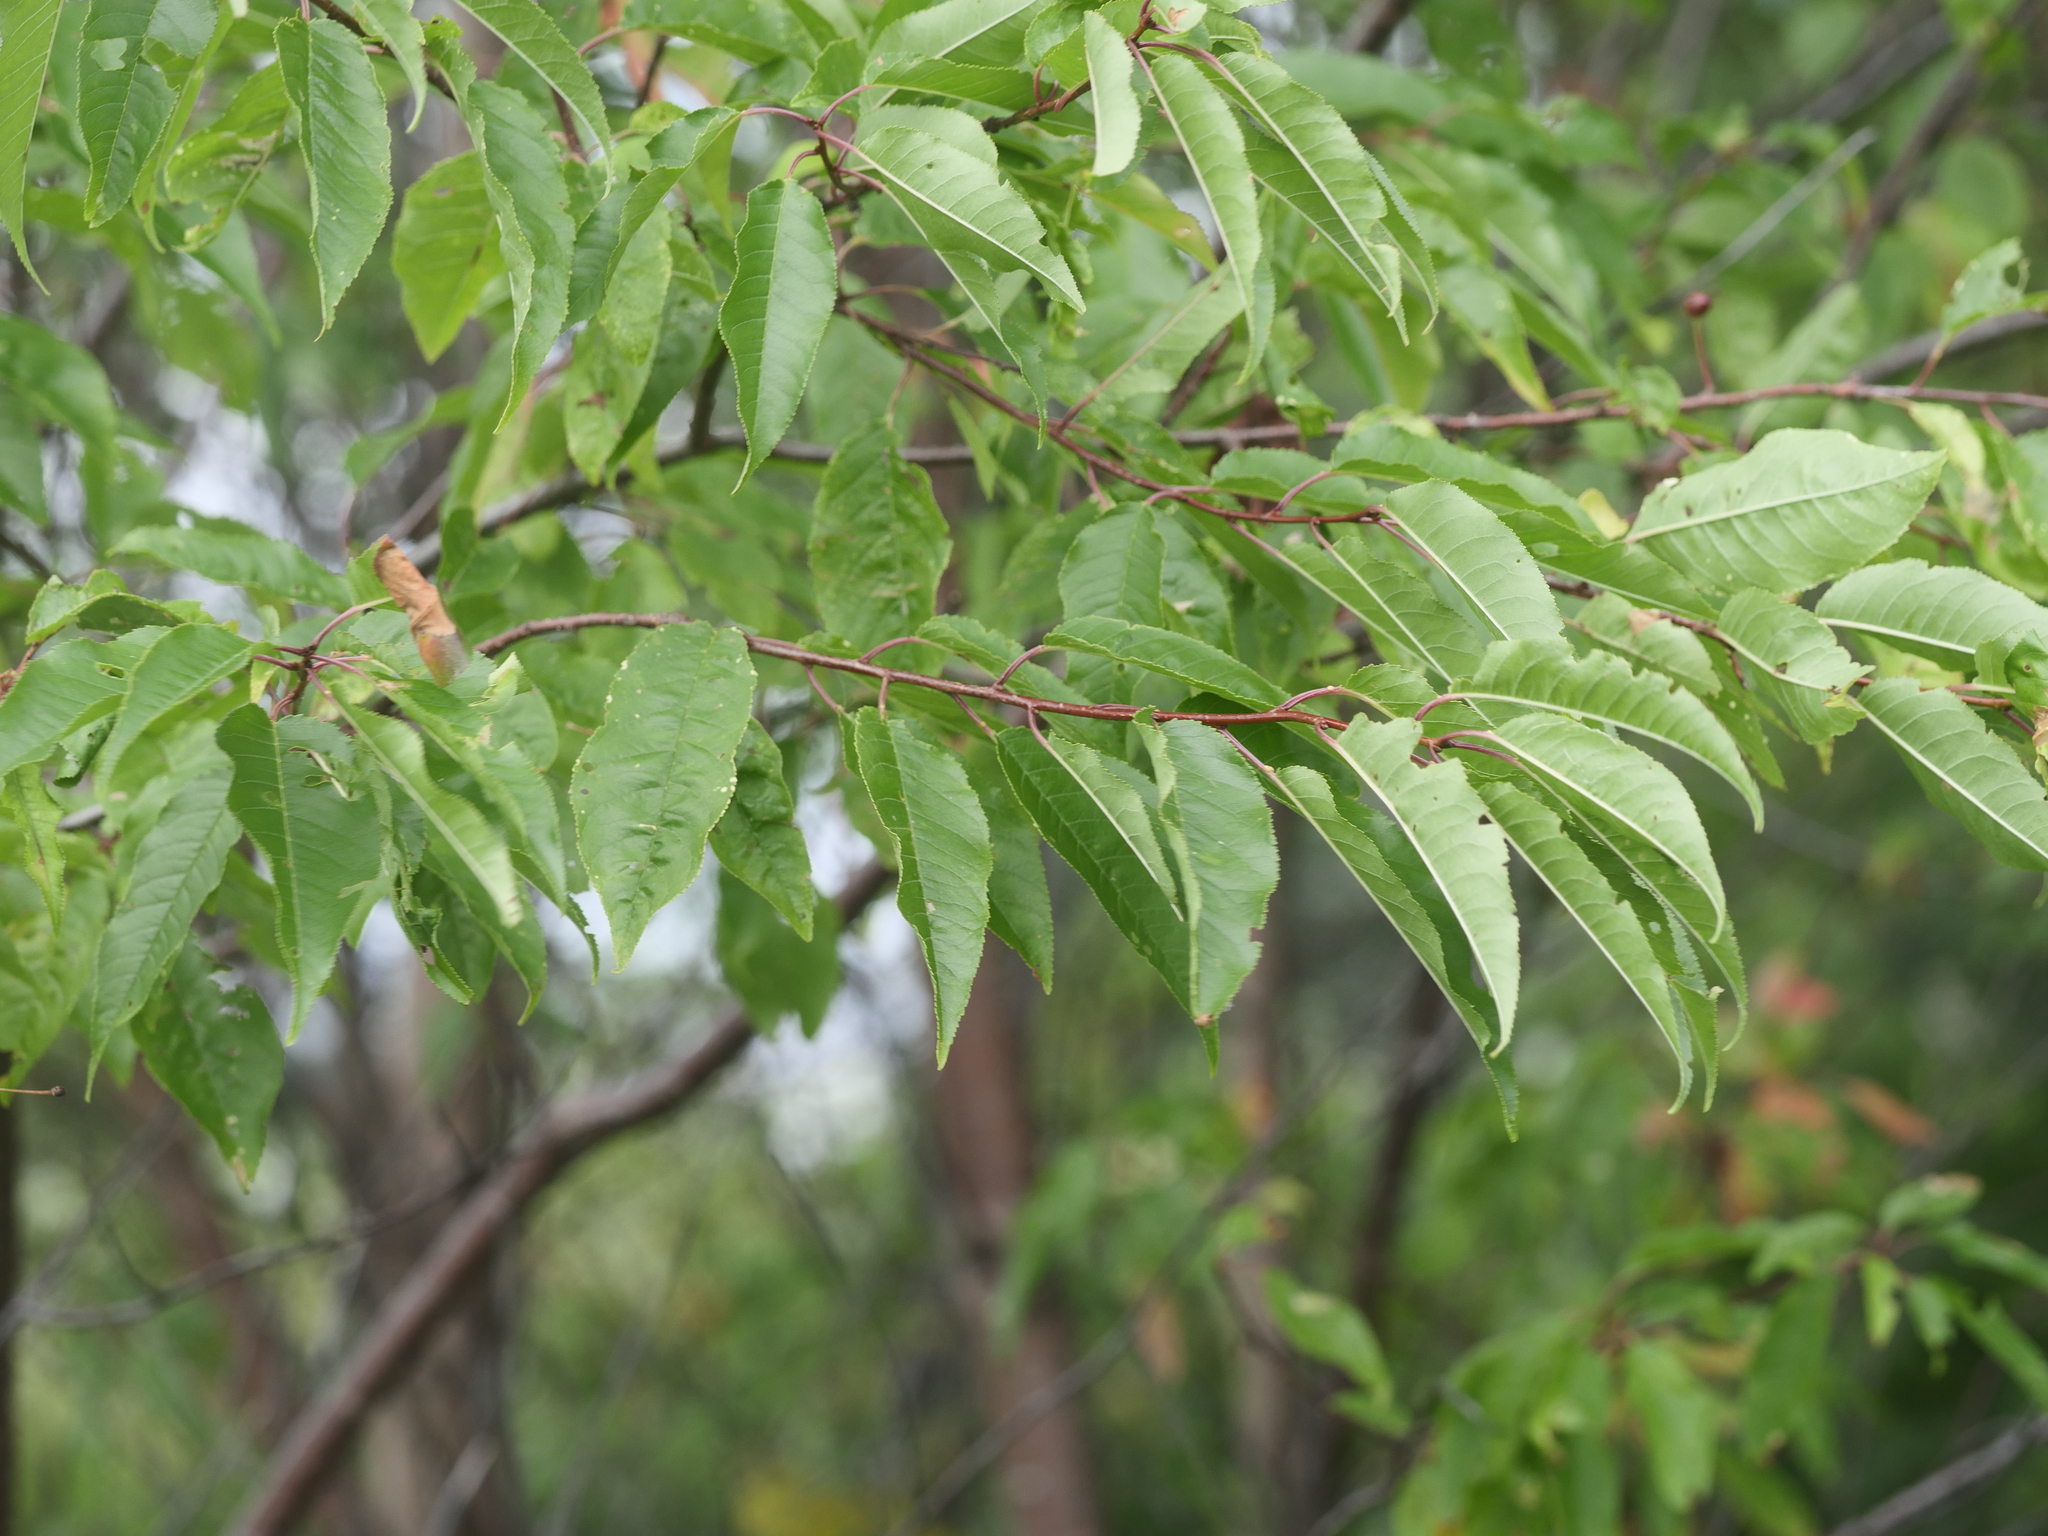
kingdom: Plantae
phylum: Tracheophyta
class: Magnoliopsida
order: Rosales
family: Rosaceae
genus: Prunus
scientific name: Prunus pensylvanica
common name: Pin cherry
